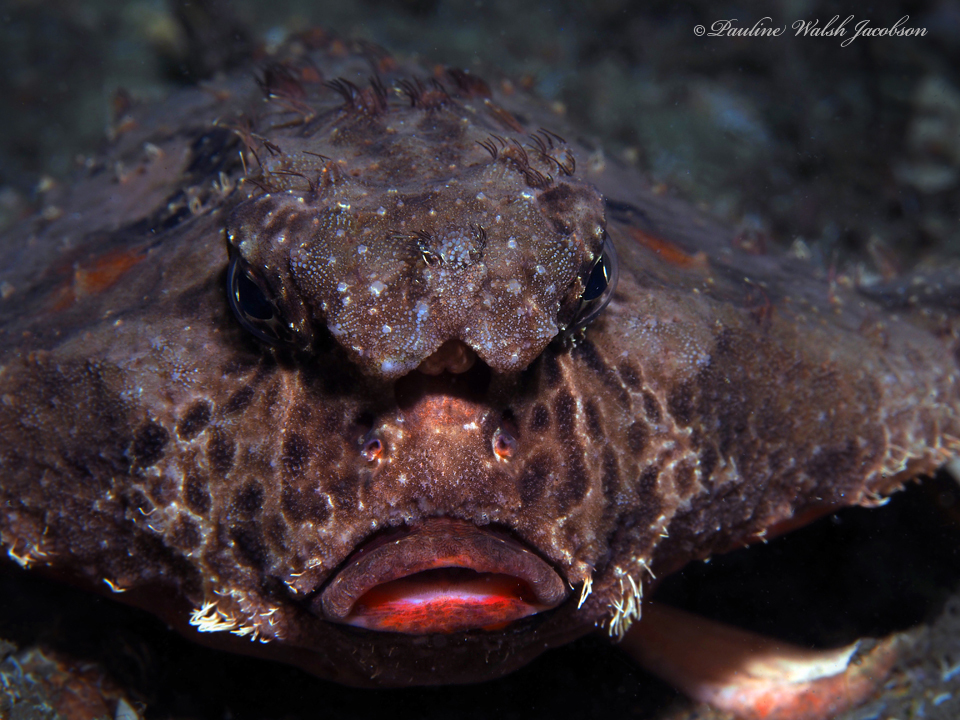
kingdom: Animalia
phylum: Chordata
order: Lophiiformes
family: Ogcocephalidae
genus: Ogcocephalus
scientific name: Ogcocephalus cubifrons
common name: Polka-dot batfish
